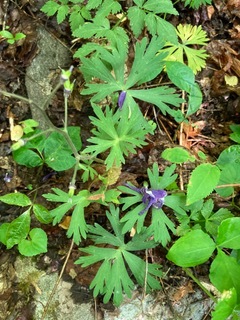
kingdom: Plantae
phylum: Tracheophyta
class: Magnoliopsida
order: Ranunculales
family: Ranunculaceae
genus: Delphinium
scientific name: Delphinium tricorne
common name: Dwarf larkspur
